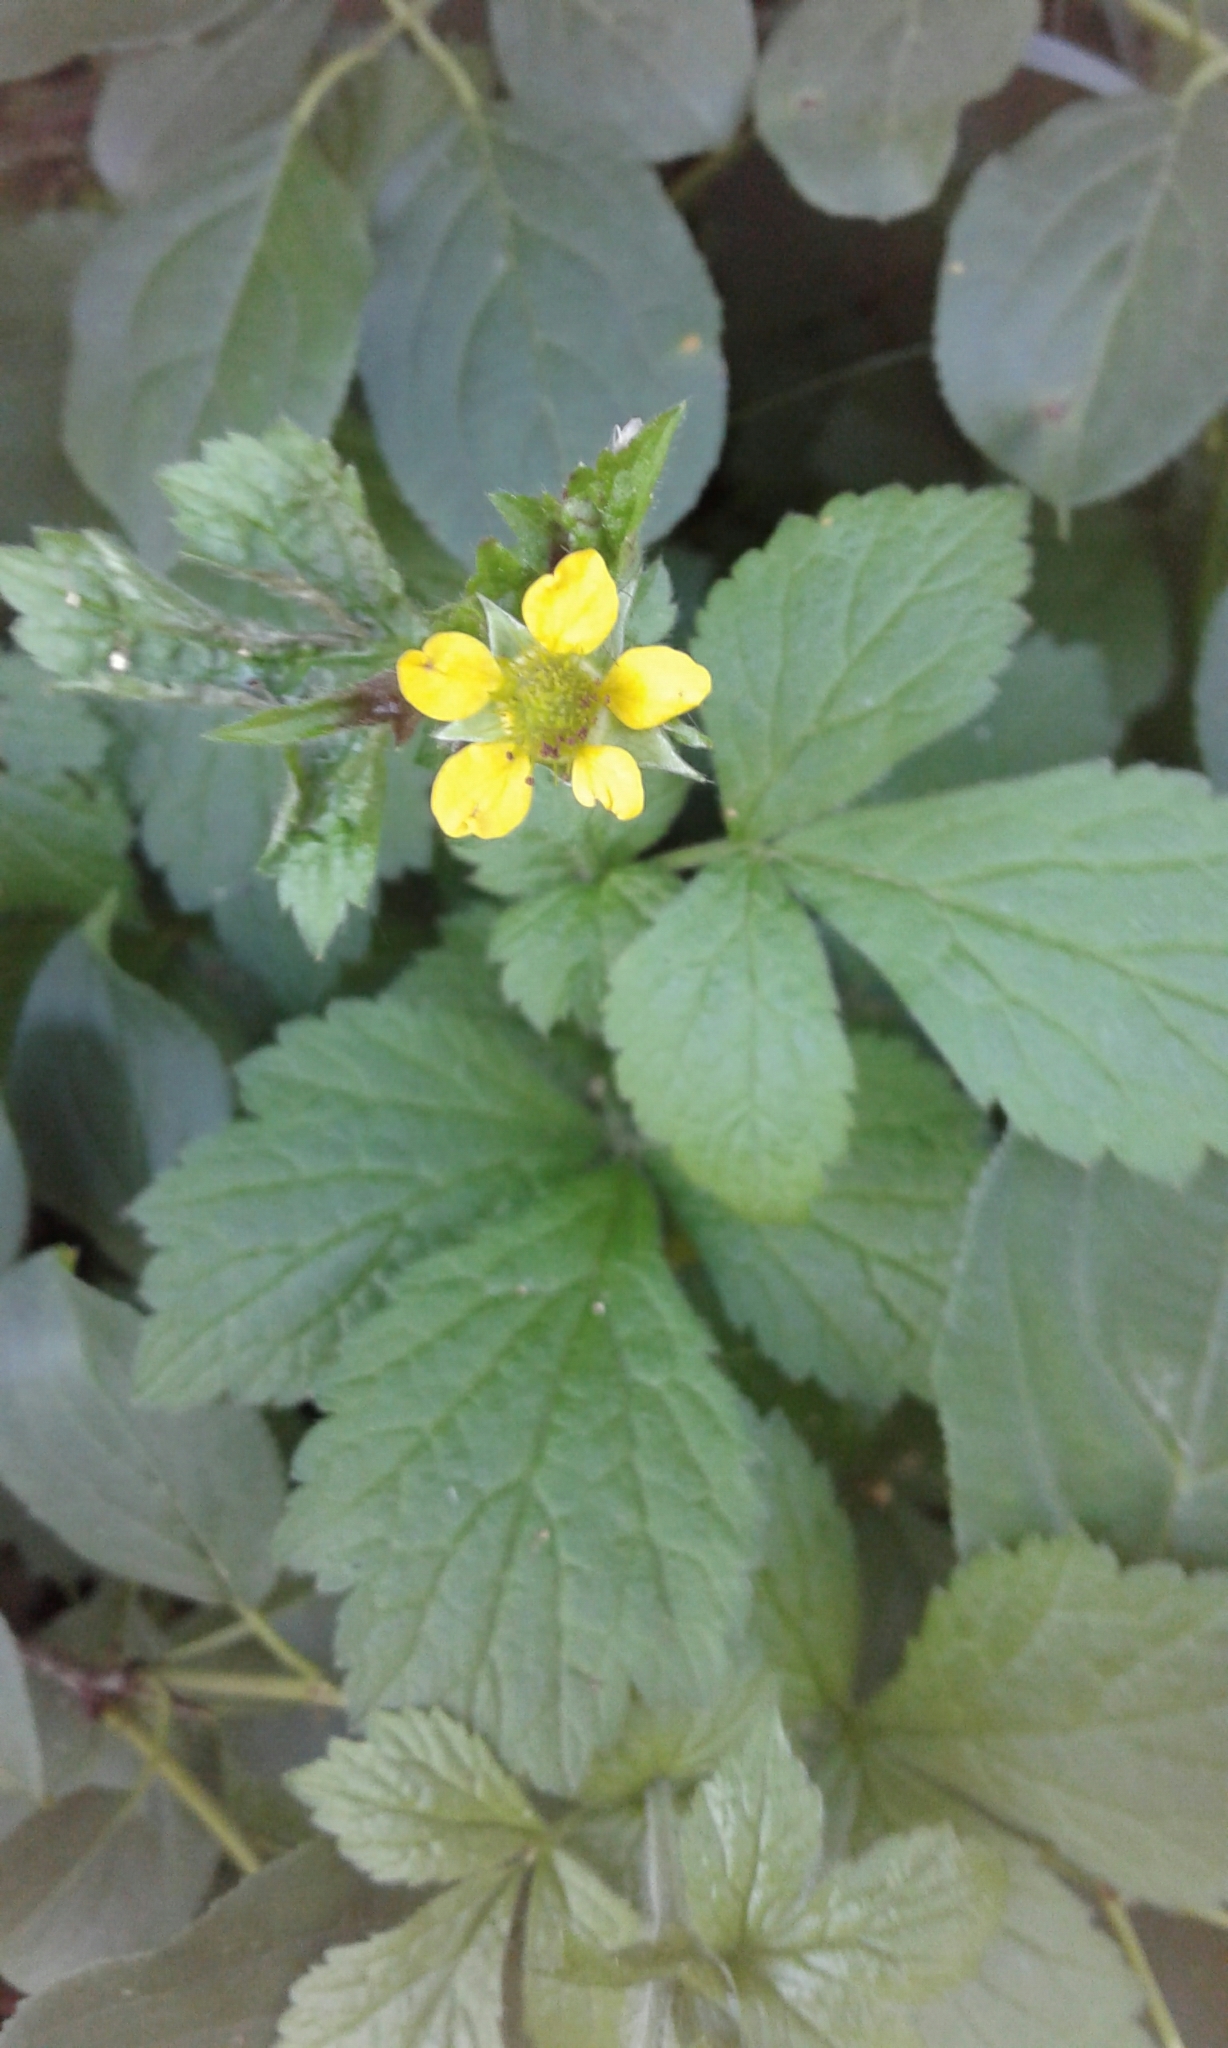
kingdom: Plantae
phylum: Tracheophyta
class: Magnoliopsida
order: Rosales
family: Rosaceae
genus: Geum
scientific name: Geum urbanum
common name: Wood avens
